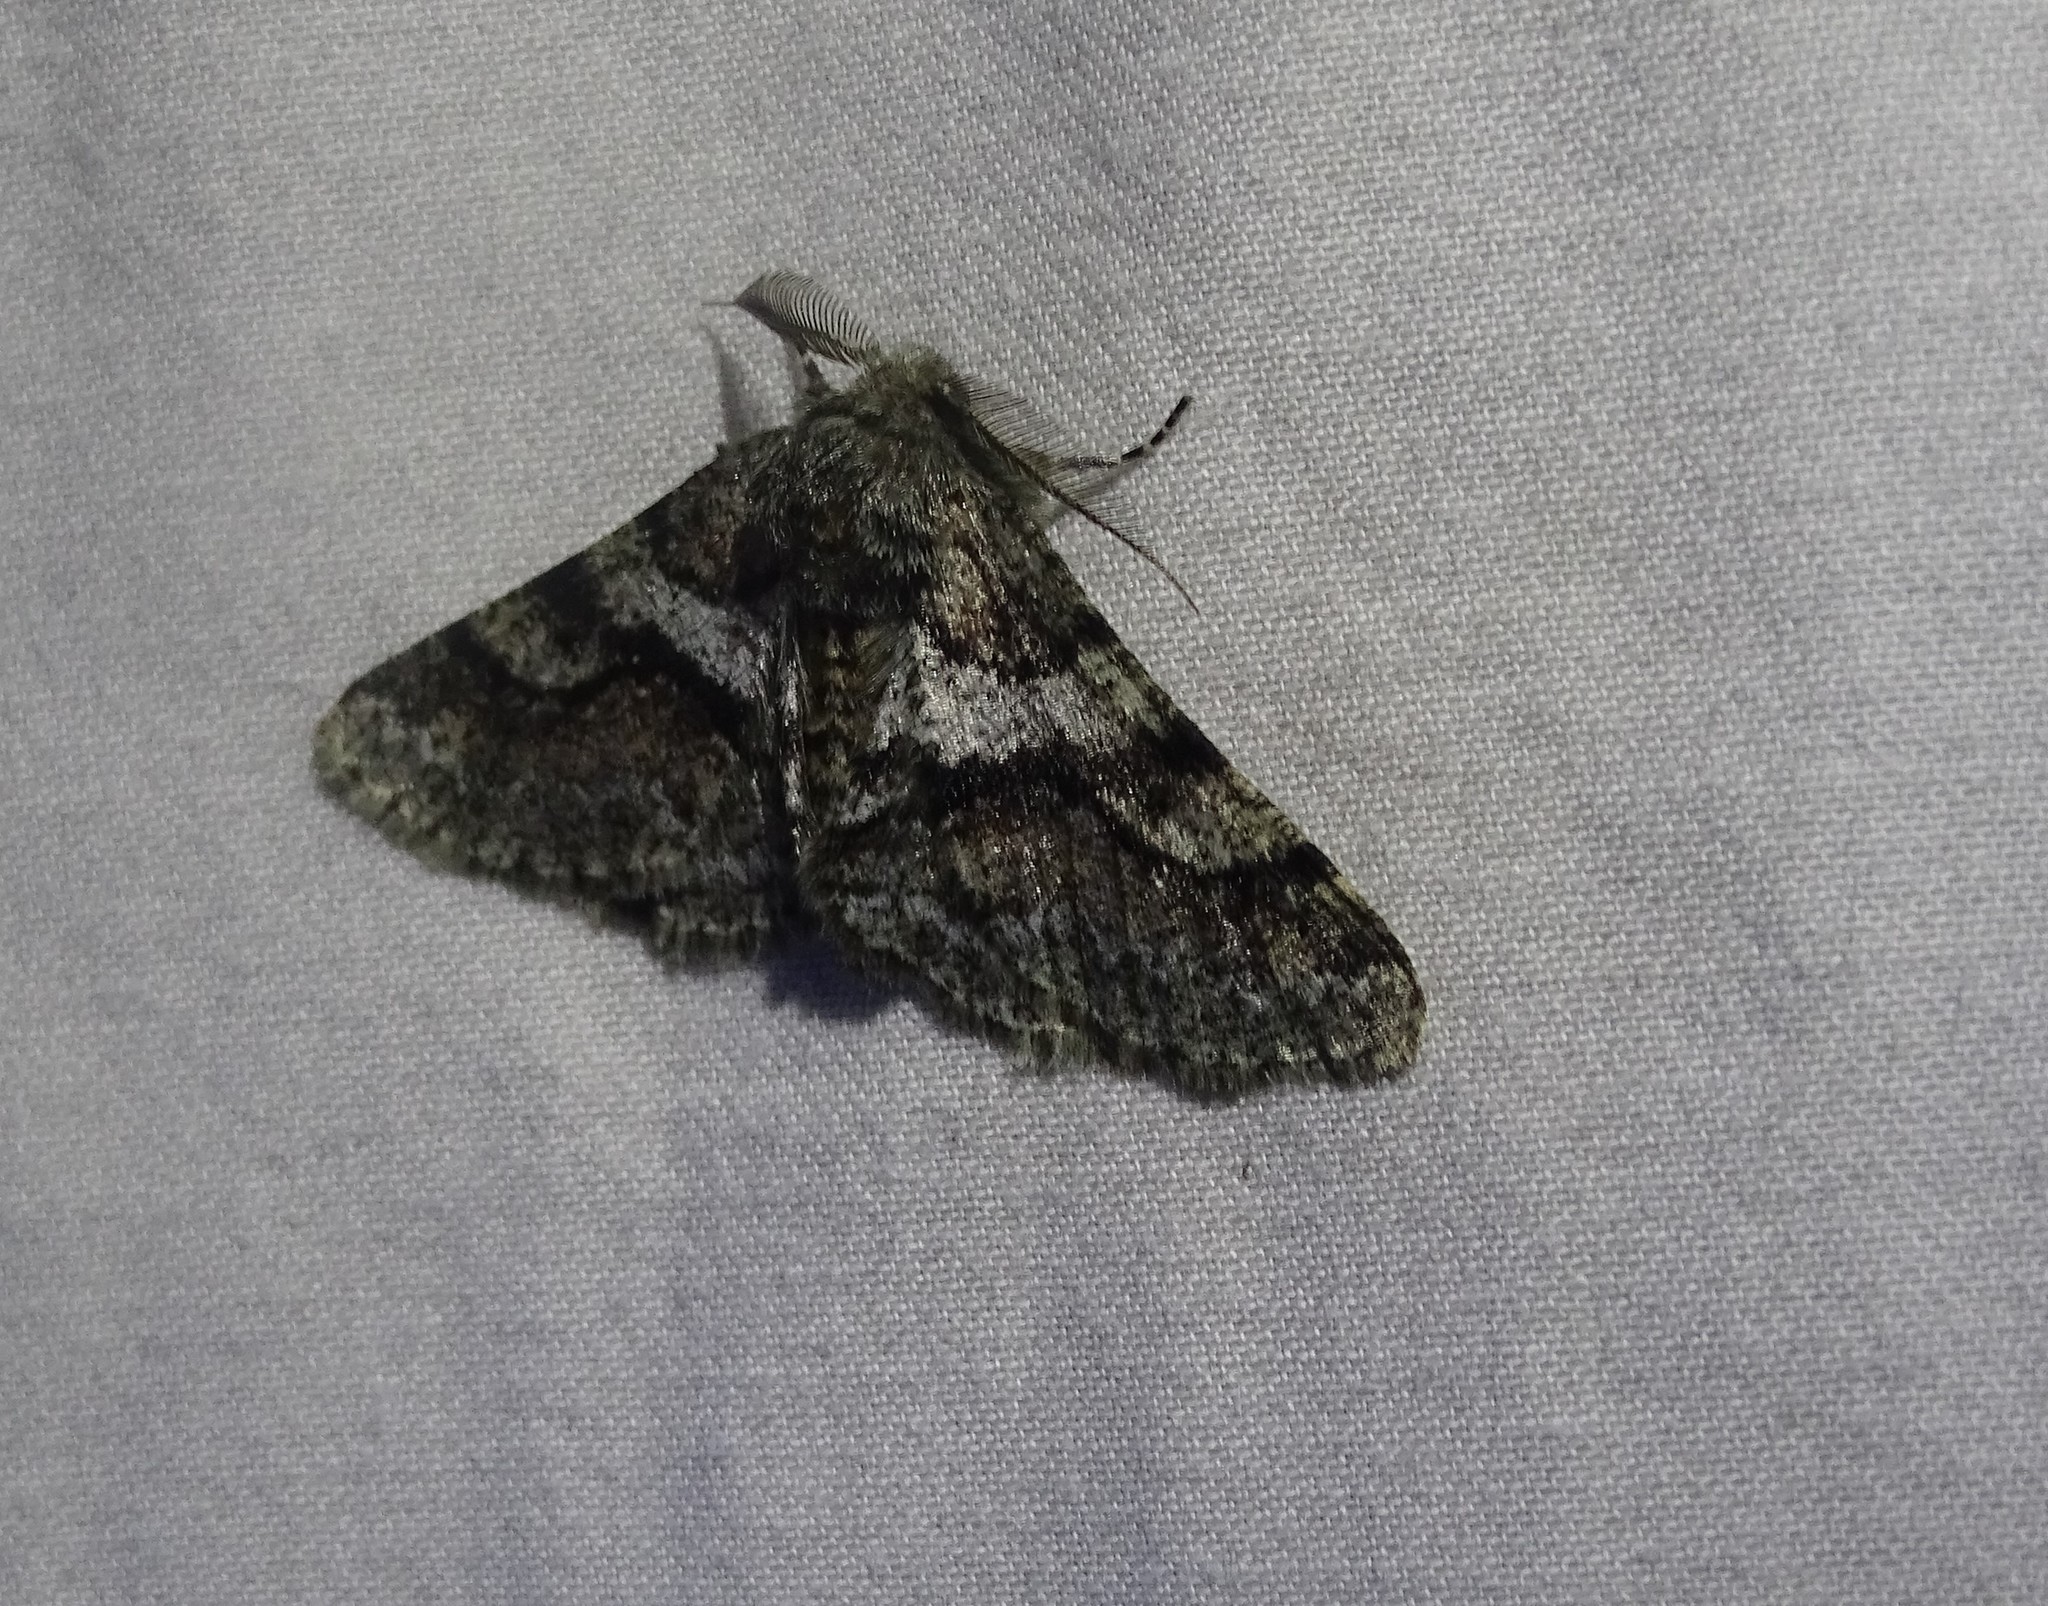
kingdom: Animalia
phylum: Arthropoda
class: Insecta
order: Lepidoptera
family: Geometridae
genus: Lycia
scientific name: Lycia ypsilon
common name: Wooly gray
